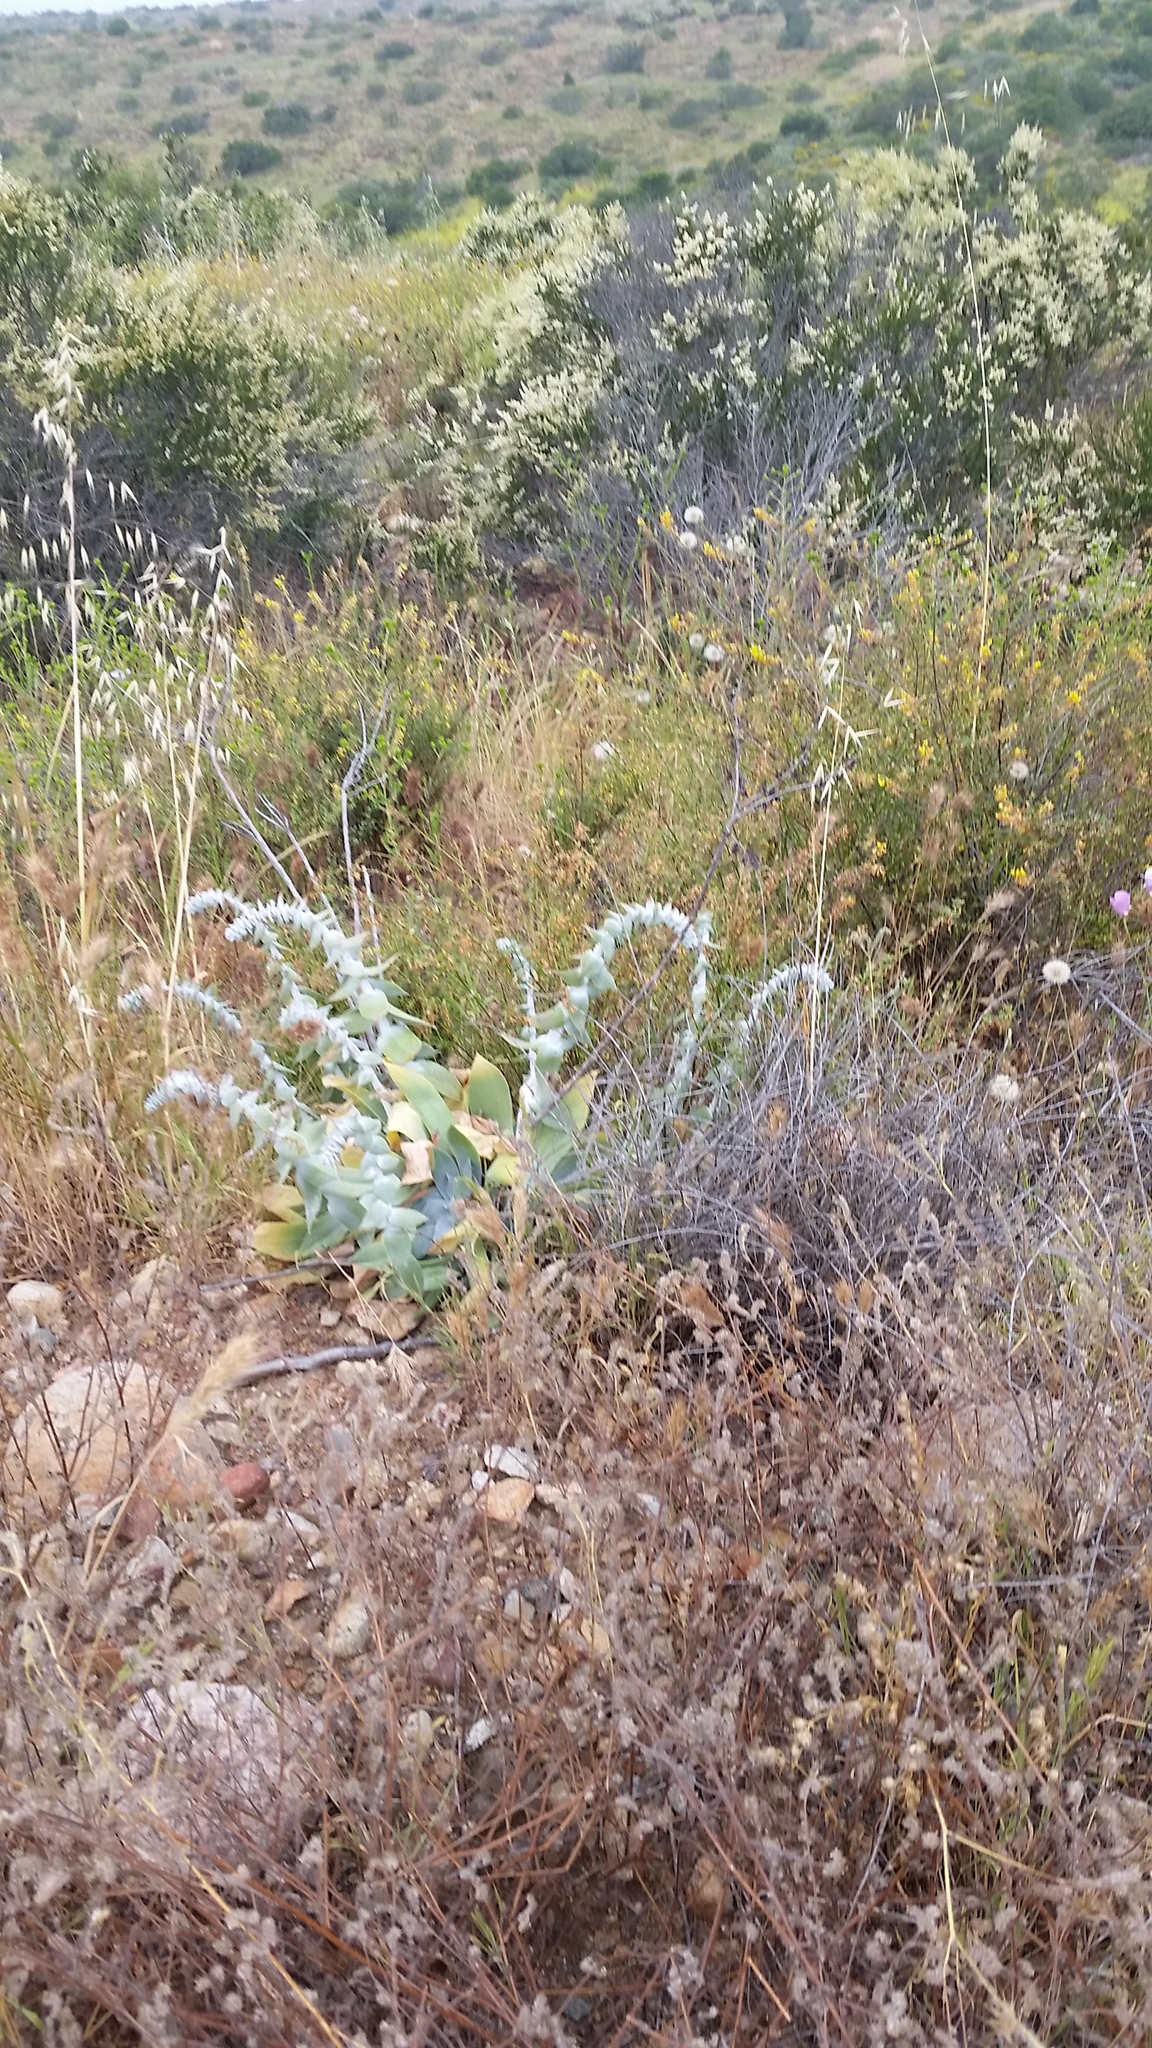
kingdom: Plantae
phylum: Tracheophyta
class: Magnoliopsida
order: Saxifragales
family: Crassulaceae
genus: Dudleya
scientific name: Dudleya pulverulenta
